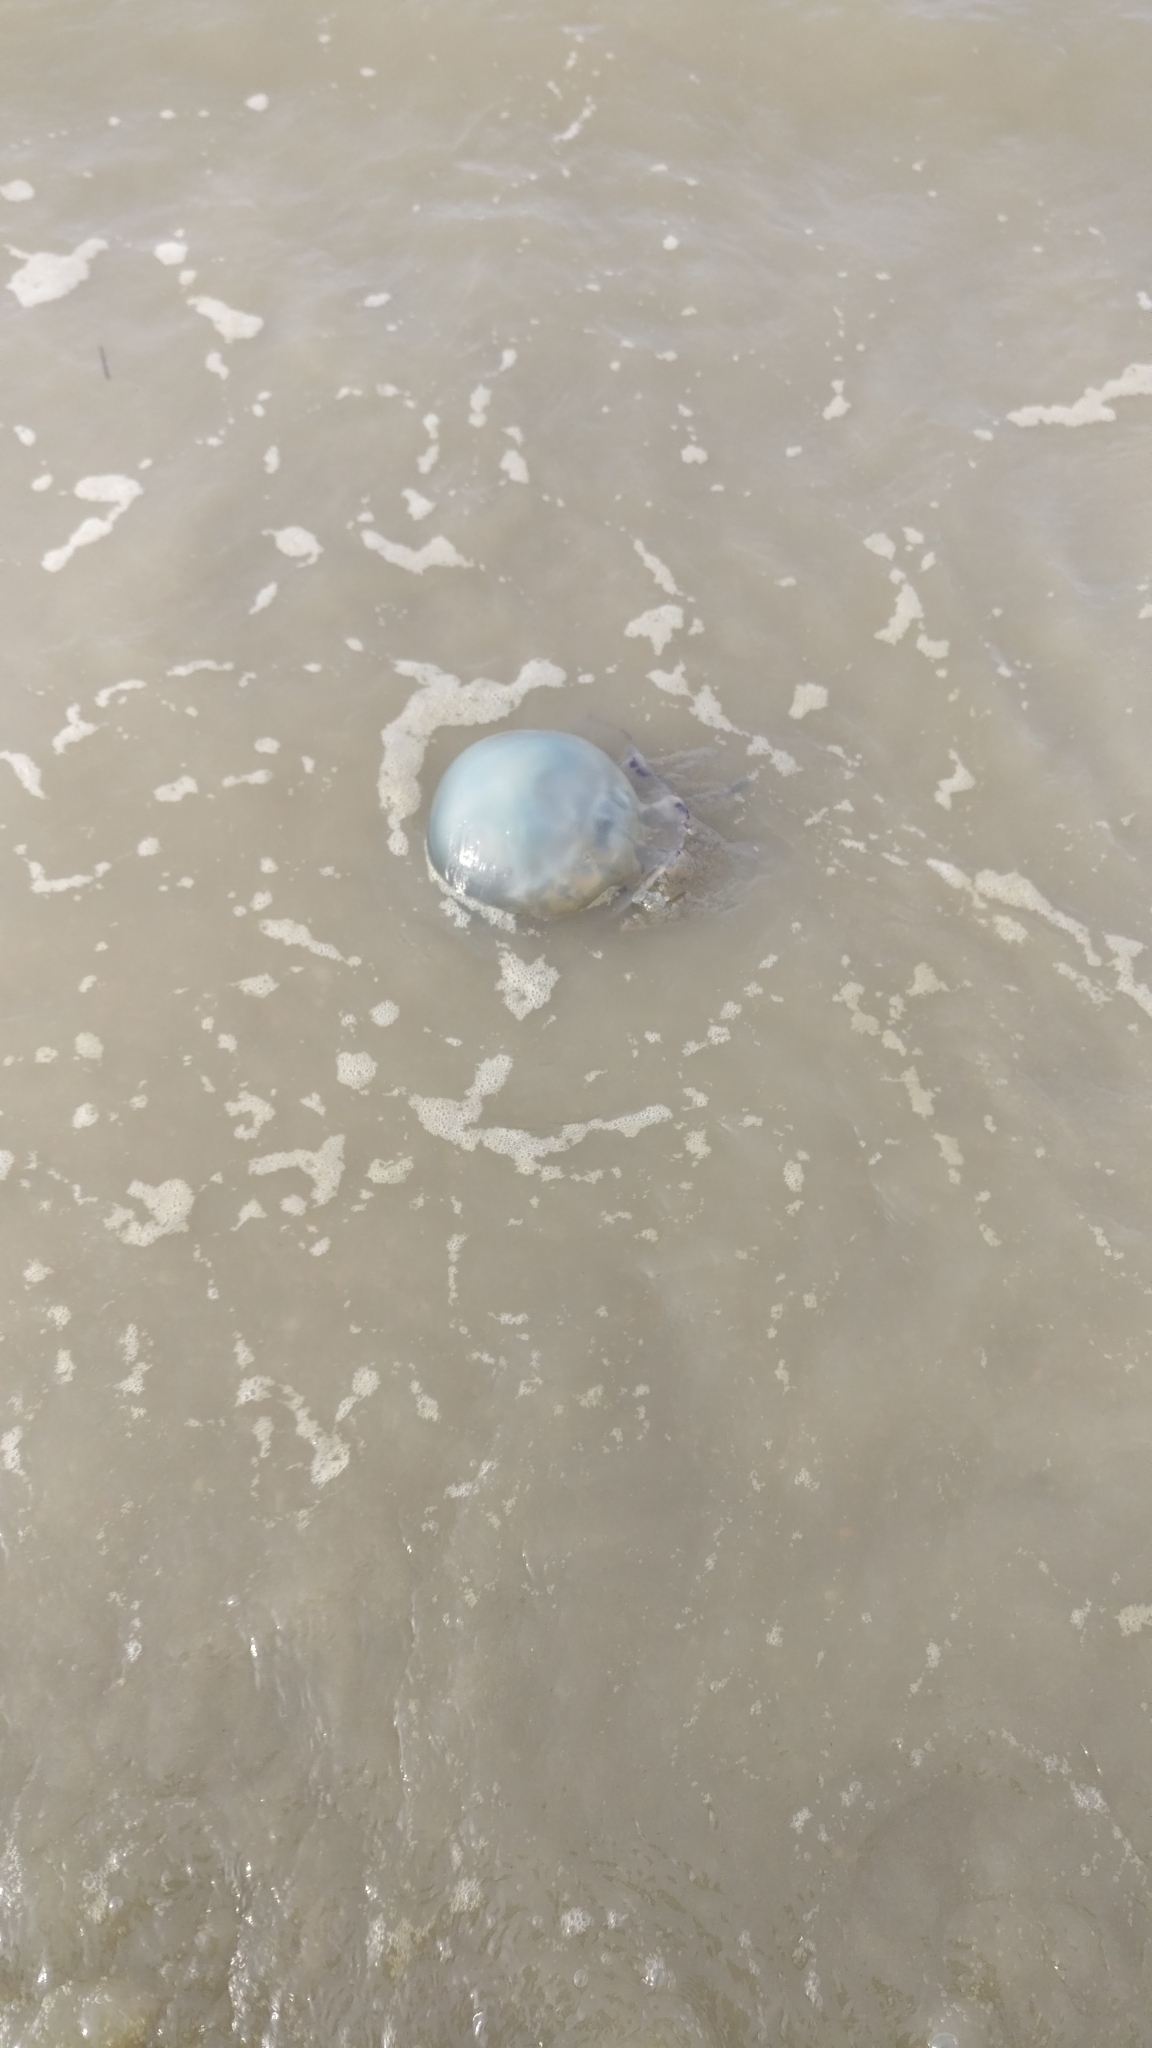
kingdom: Animalia
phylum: Cnidaria
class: Scyphozoa
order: Rhizostomeae
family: Rhizostomatidae
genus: Rhizostoma
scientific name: Rhizostoma octopus
